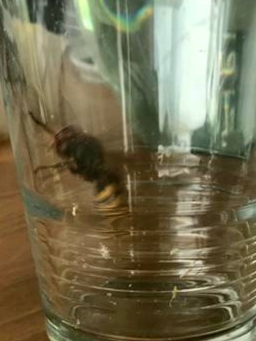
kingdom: Animalia
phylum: Arthropoda
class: Insecta
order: Hymenoptera
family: Vespidae
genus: Vespa
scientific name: Vespa crabro
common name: Hornet
